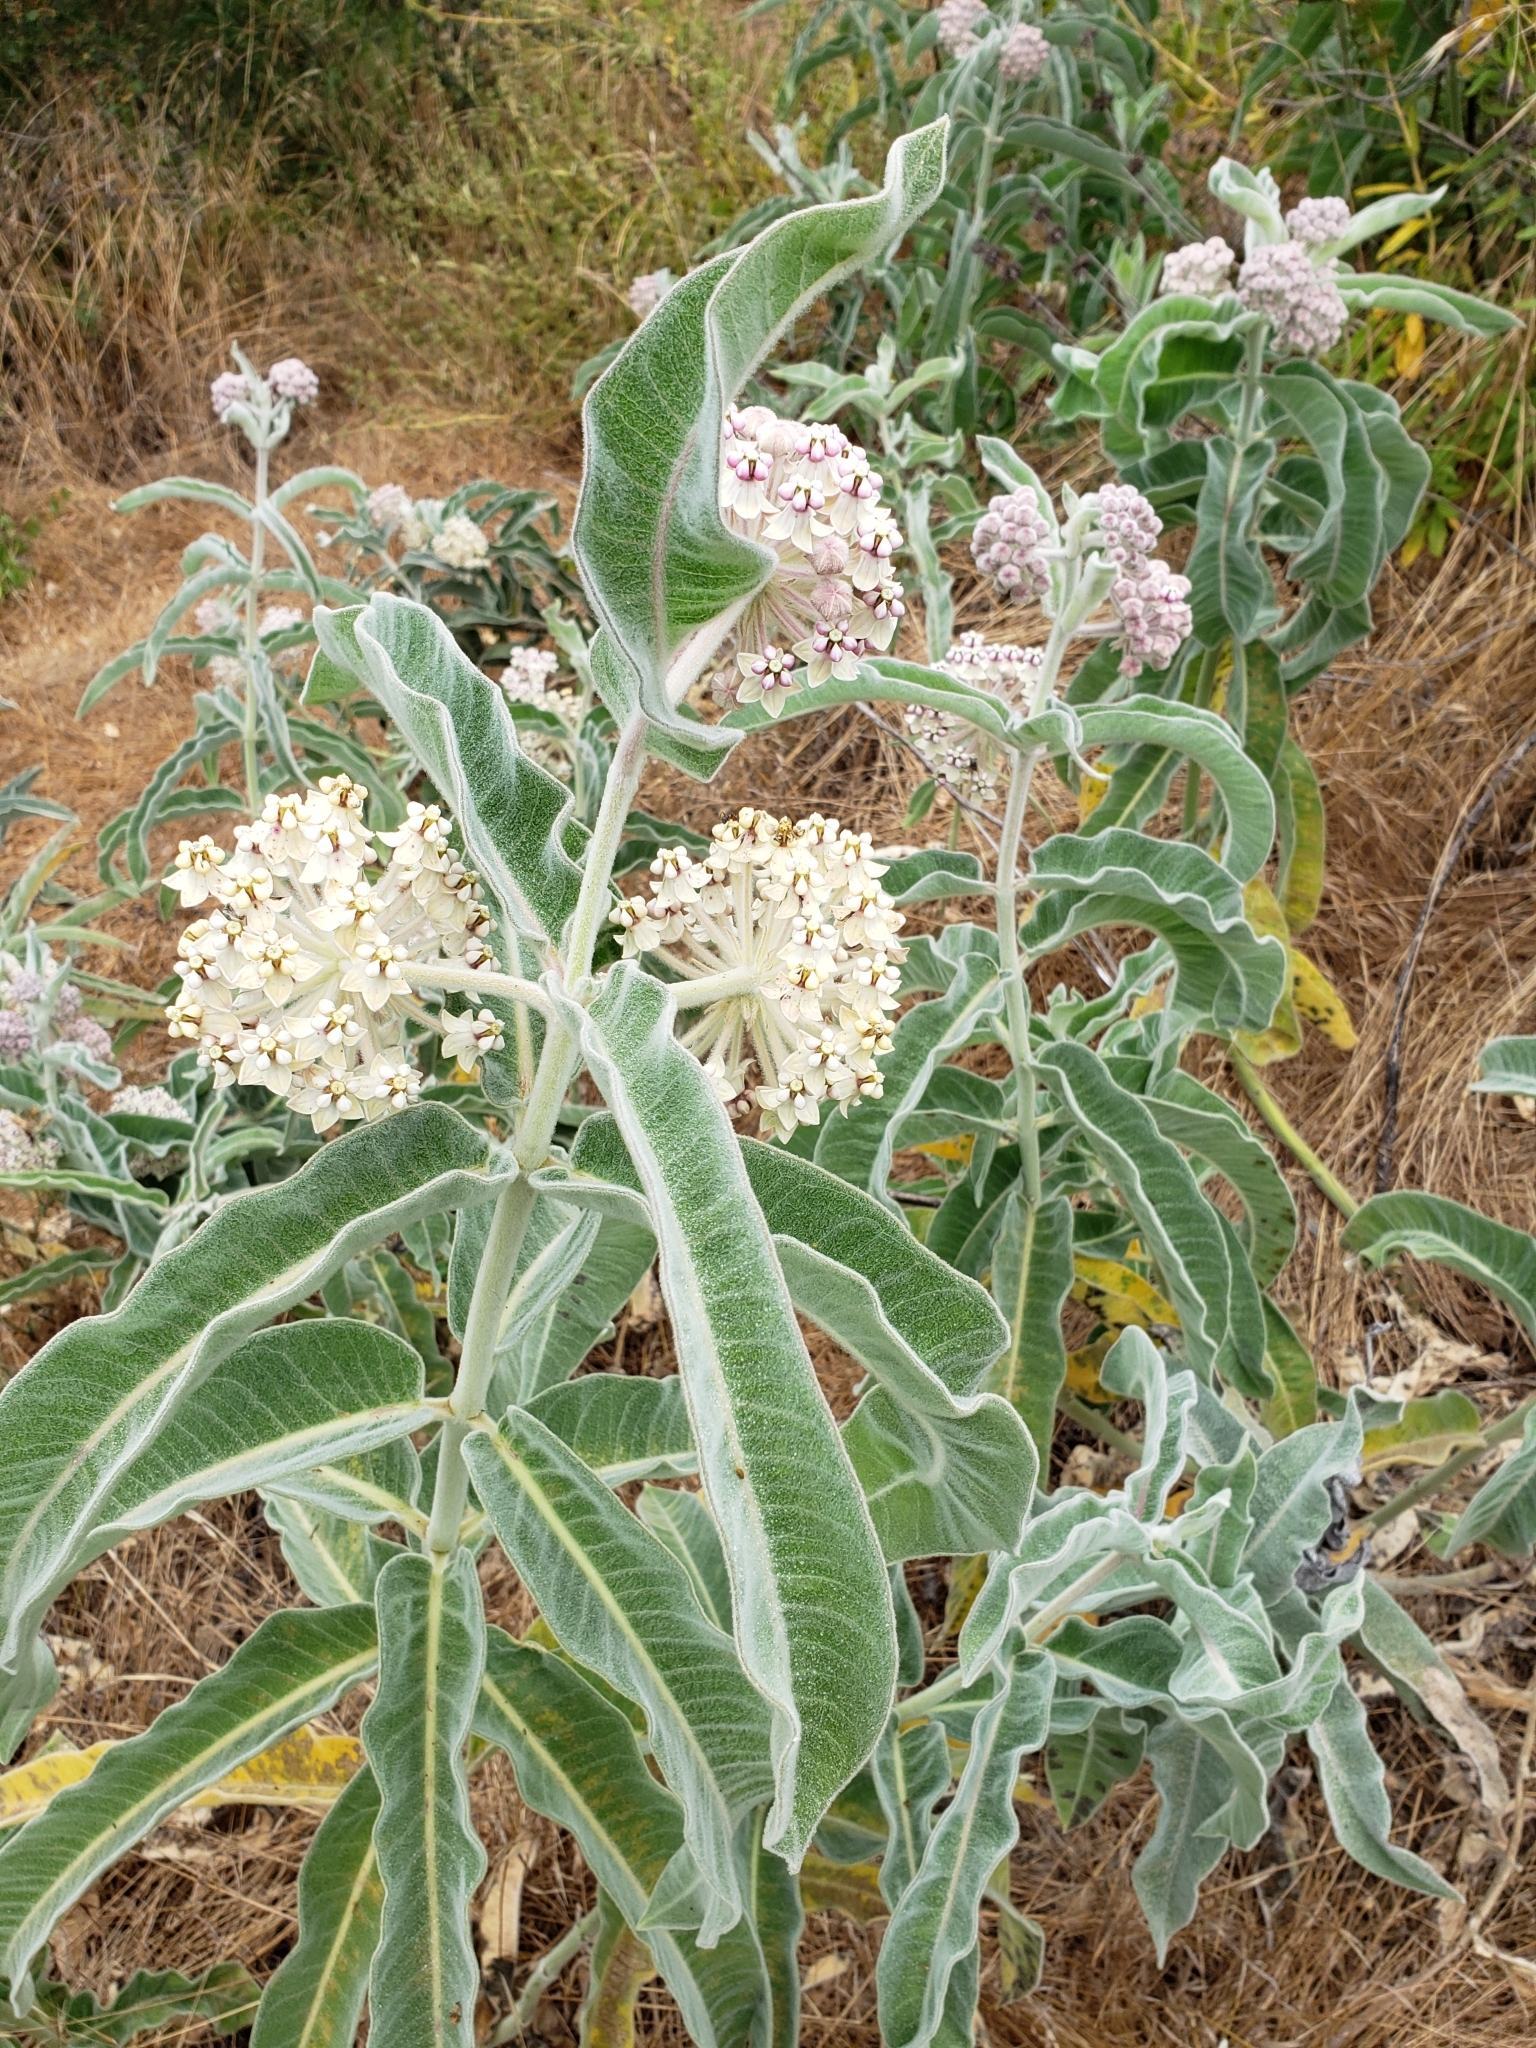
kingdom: Plantae
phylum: Tracheophyta
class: Magnoliopsida
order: Gentianales
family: Apocynaceae
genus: Asclepias
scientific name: Asclepias eriocarpa
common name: Indian milkweed
